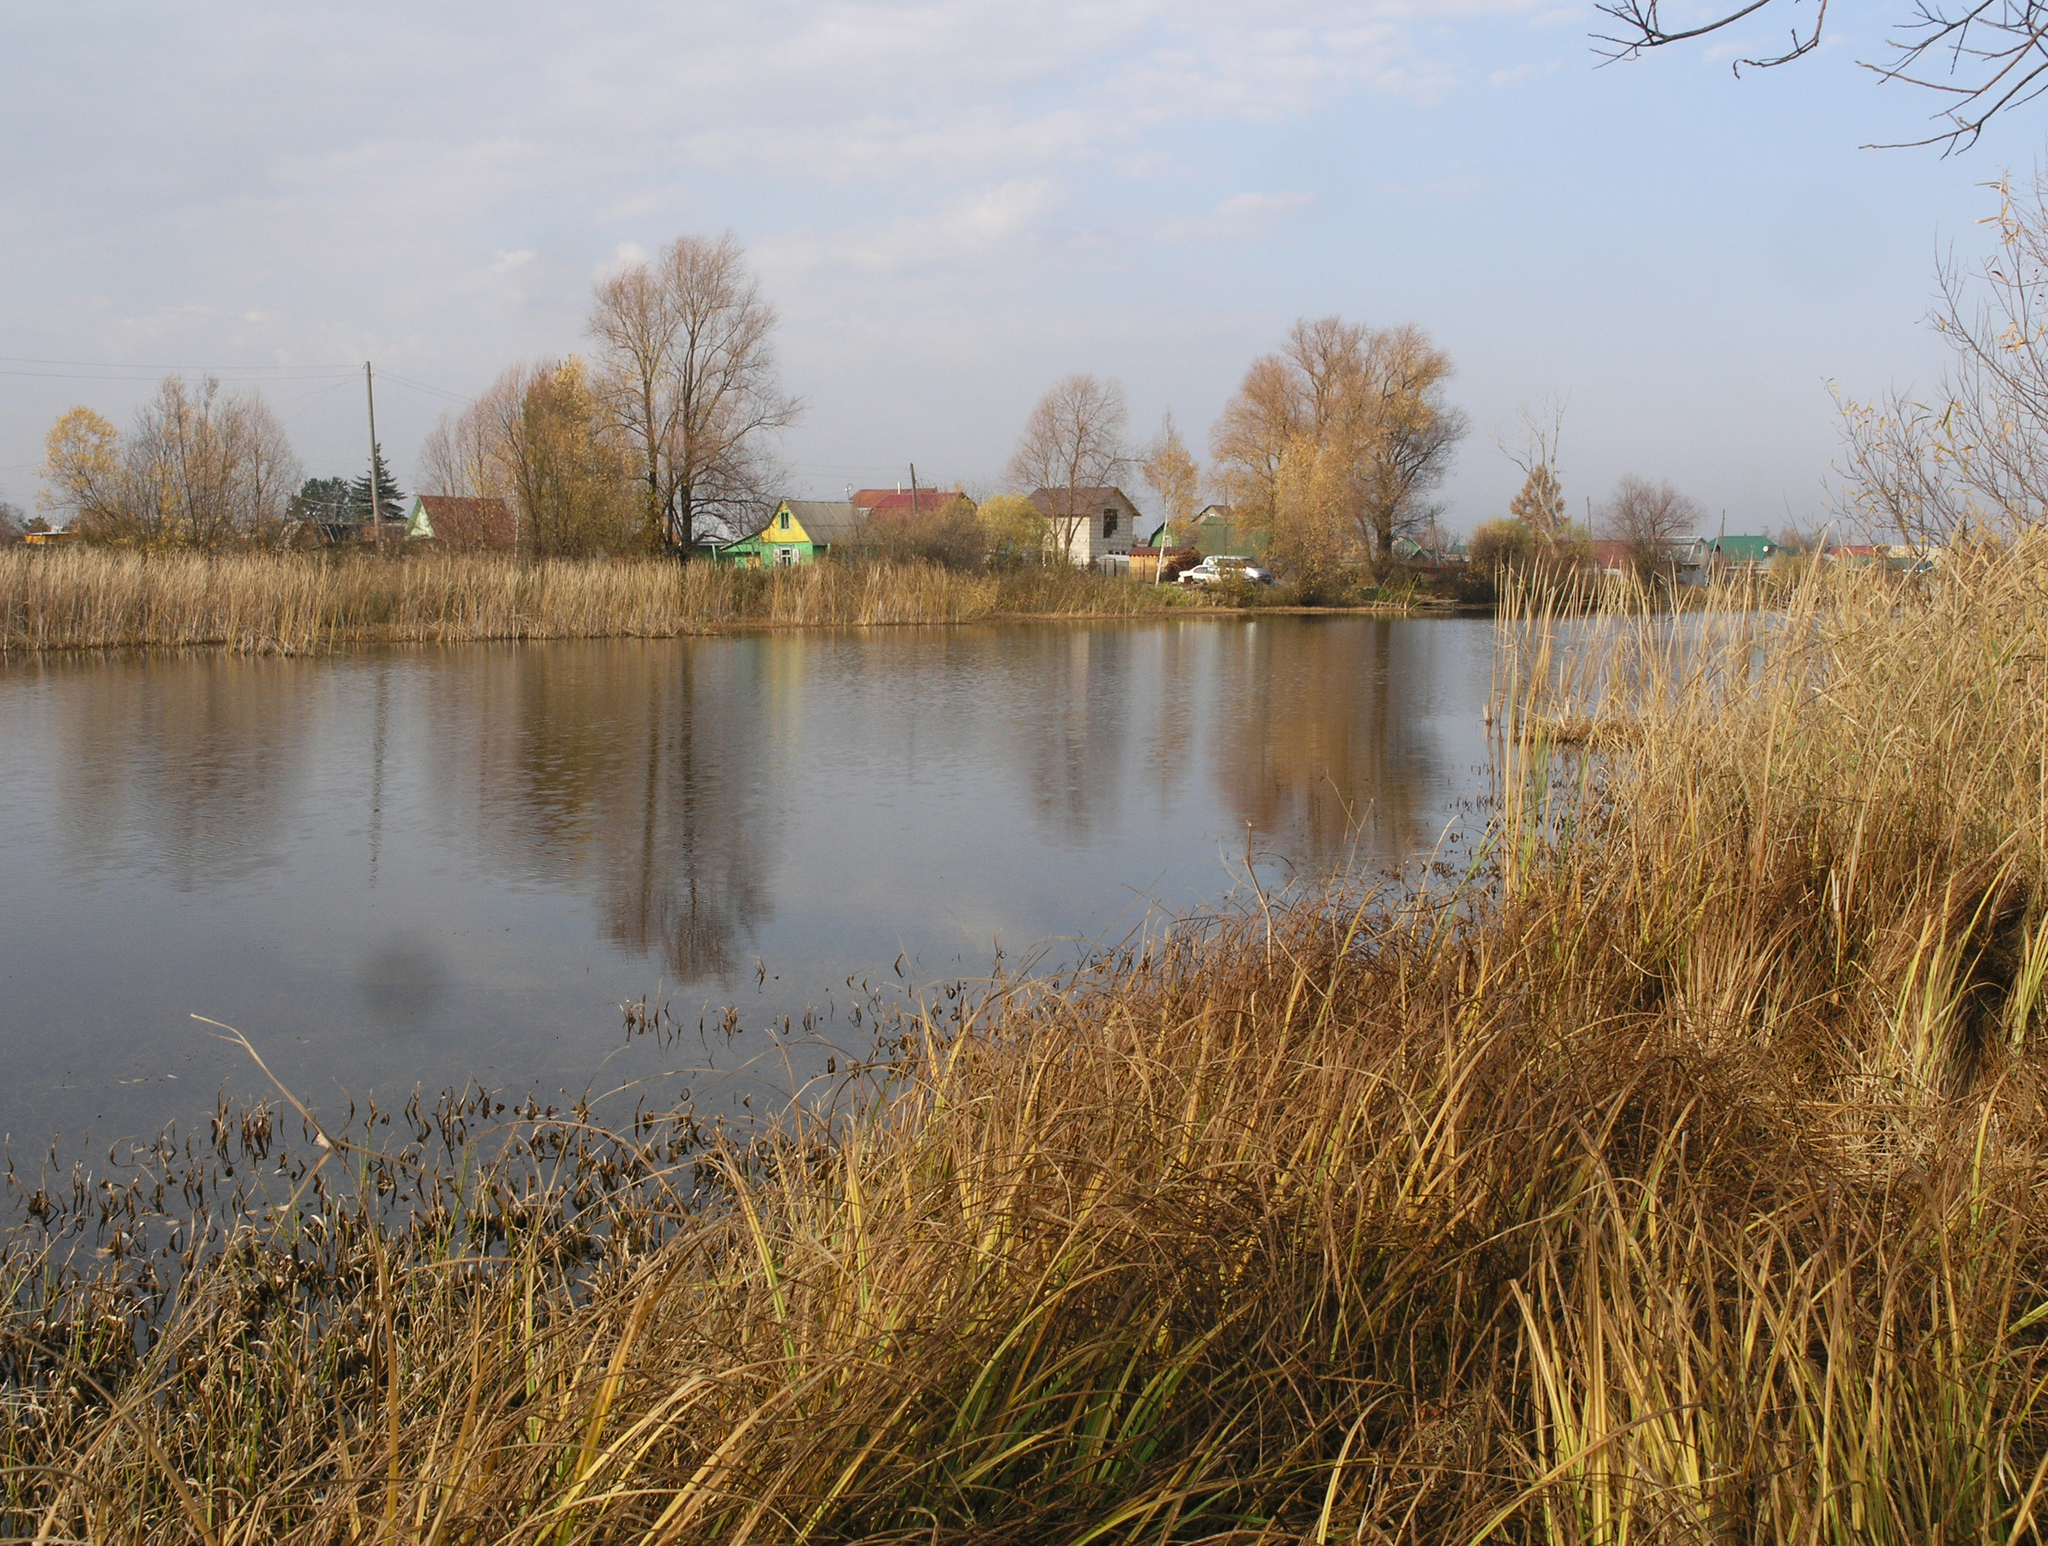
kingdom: Plantae
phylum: Tracheophyta
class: Liliopsida
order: Alismatales
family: Hydrocharitaceae
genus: Stratiotes
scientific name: Stratiotes aloides
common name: Water-soldier
